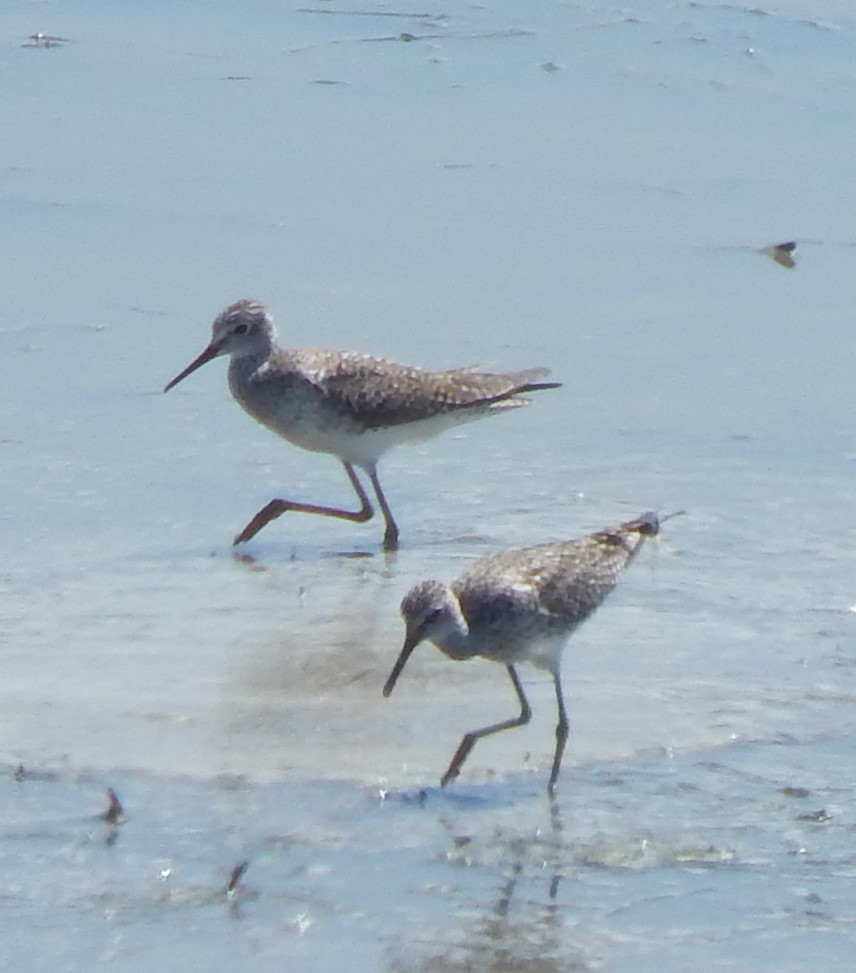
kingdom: Animalia
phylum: Chordata
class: Aves
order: Charadriiformes
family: Scolopacidae
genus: Tringa
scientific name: Tringa flavipes
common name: Lesser yellowlegs
